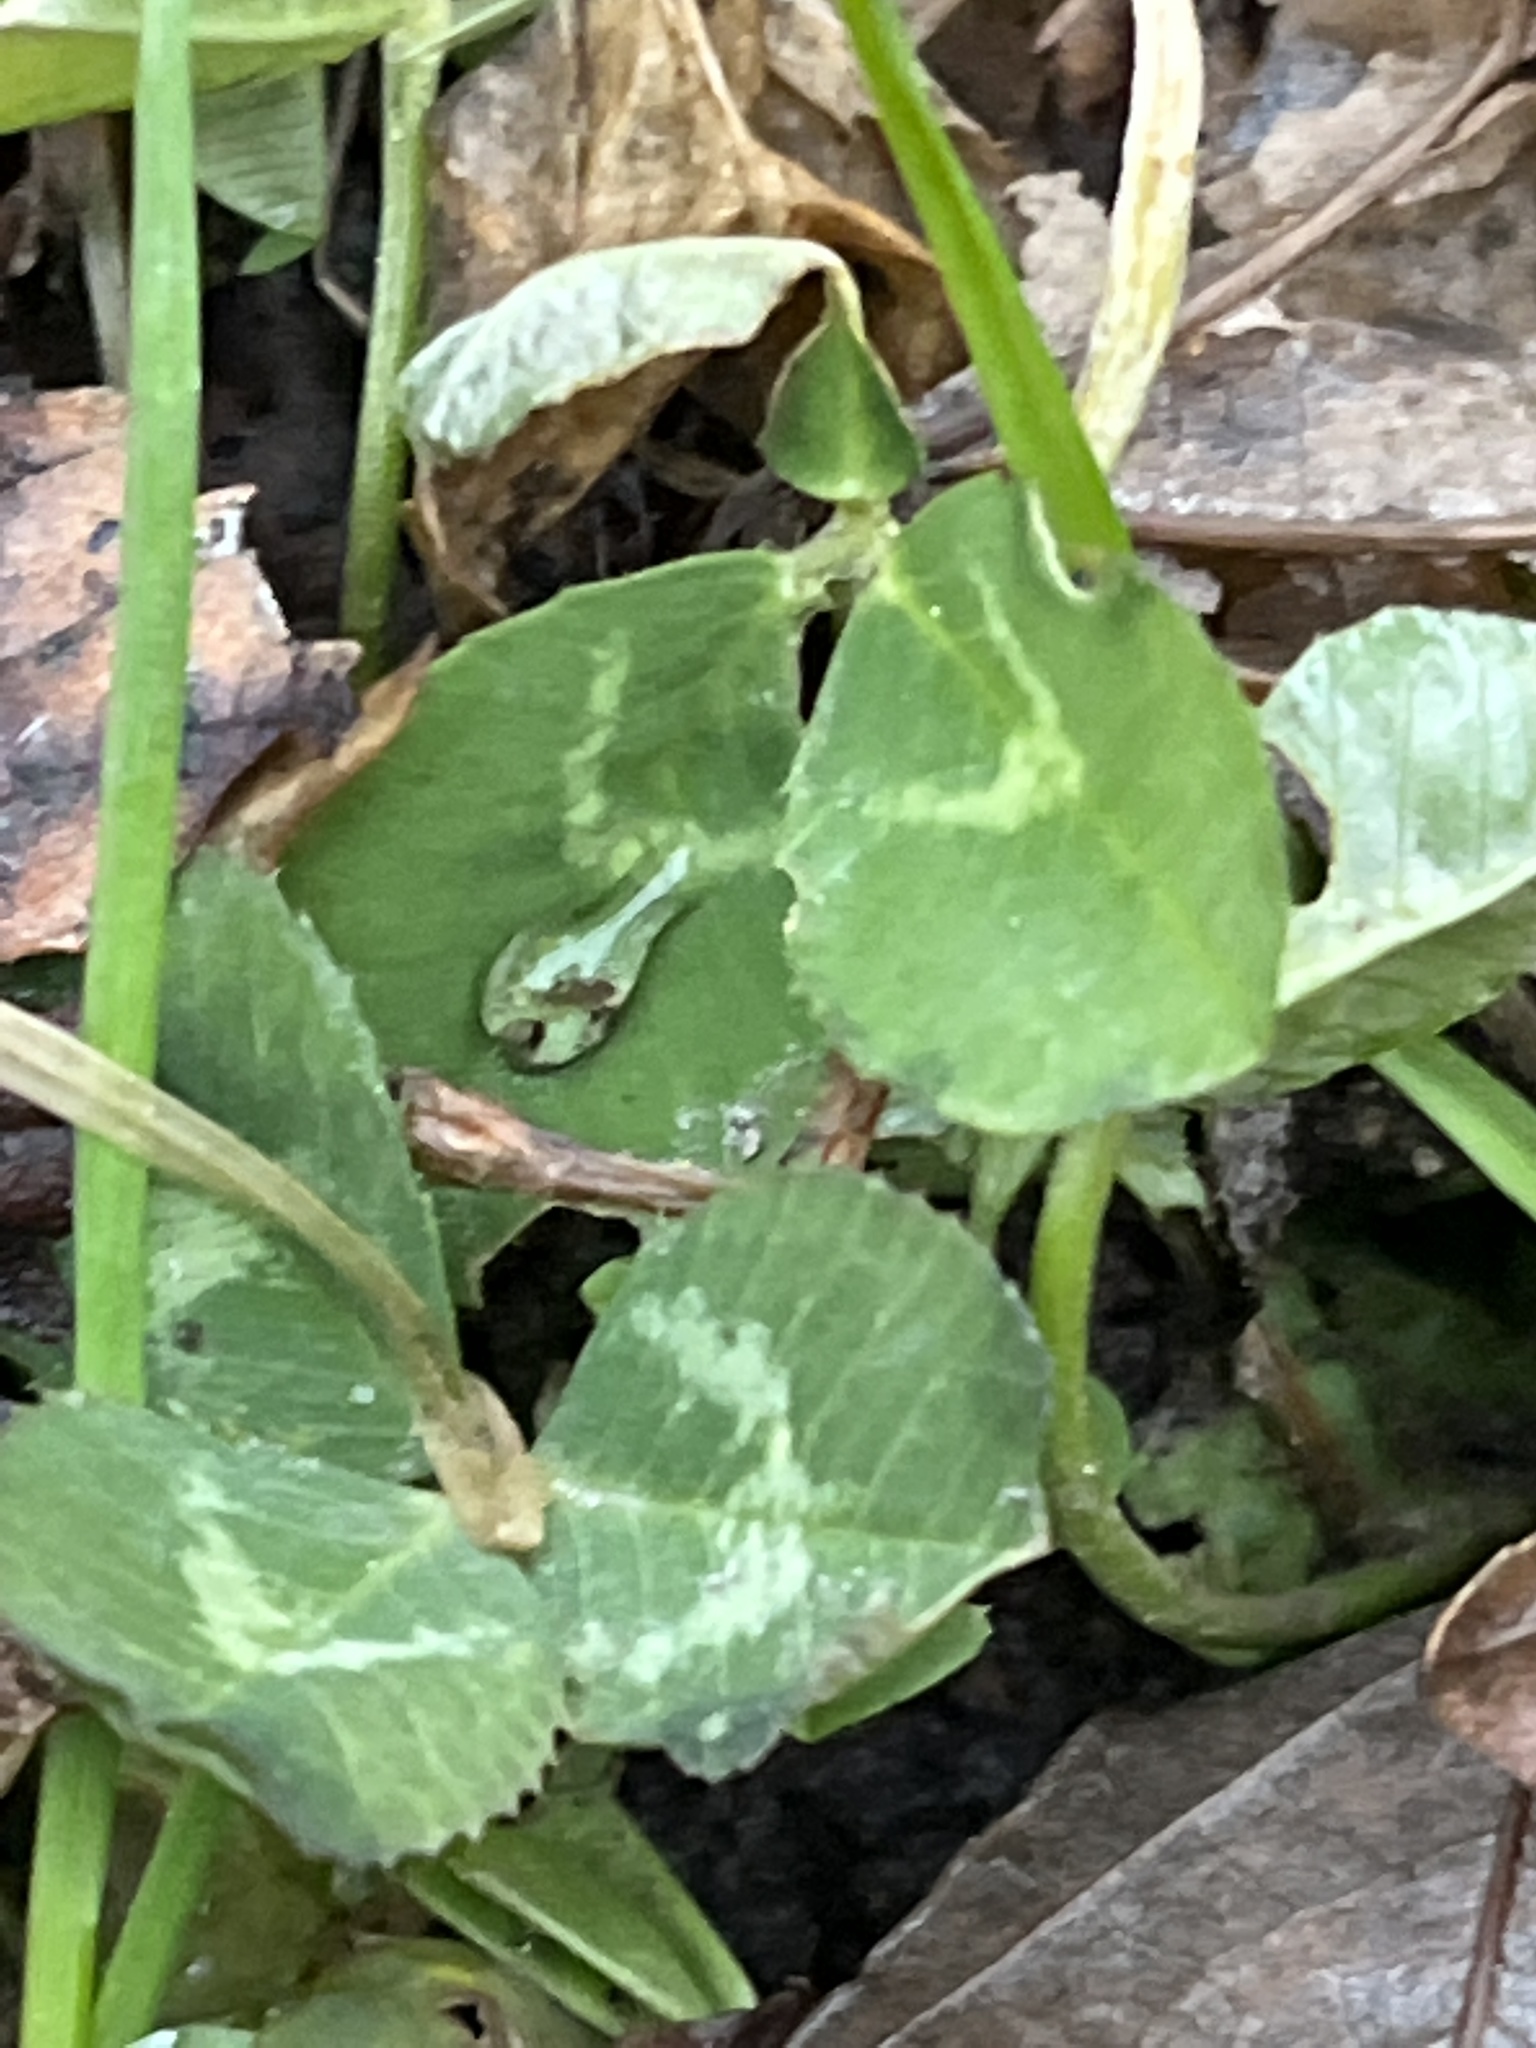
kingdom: Plantae
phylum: Tracheophyta
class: Magnoliopsida
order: Fabales
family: Fabaceae
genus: Trifolium
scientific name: Trifolium repens
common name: White clover
